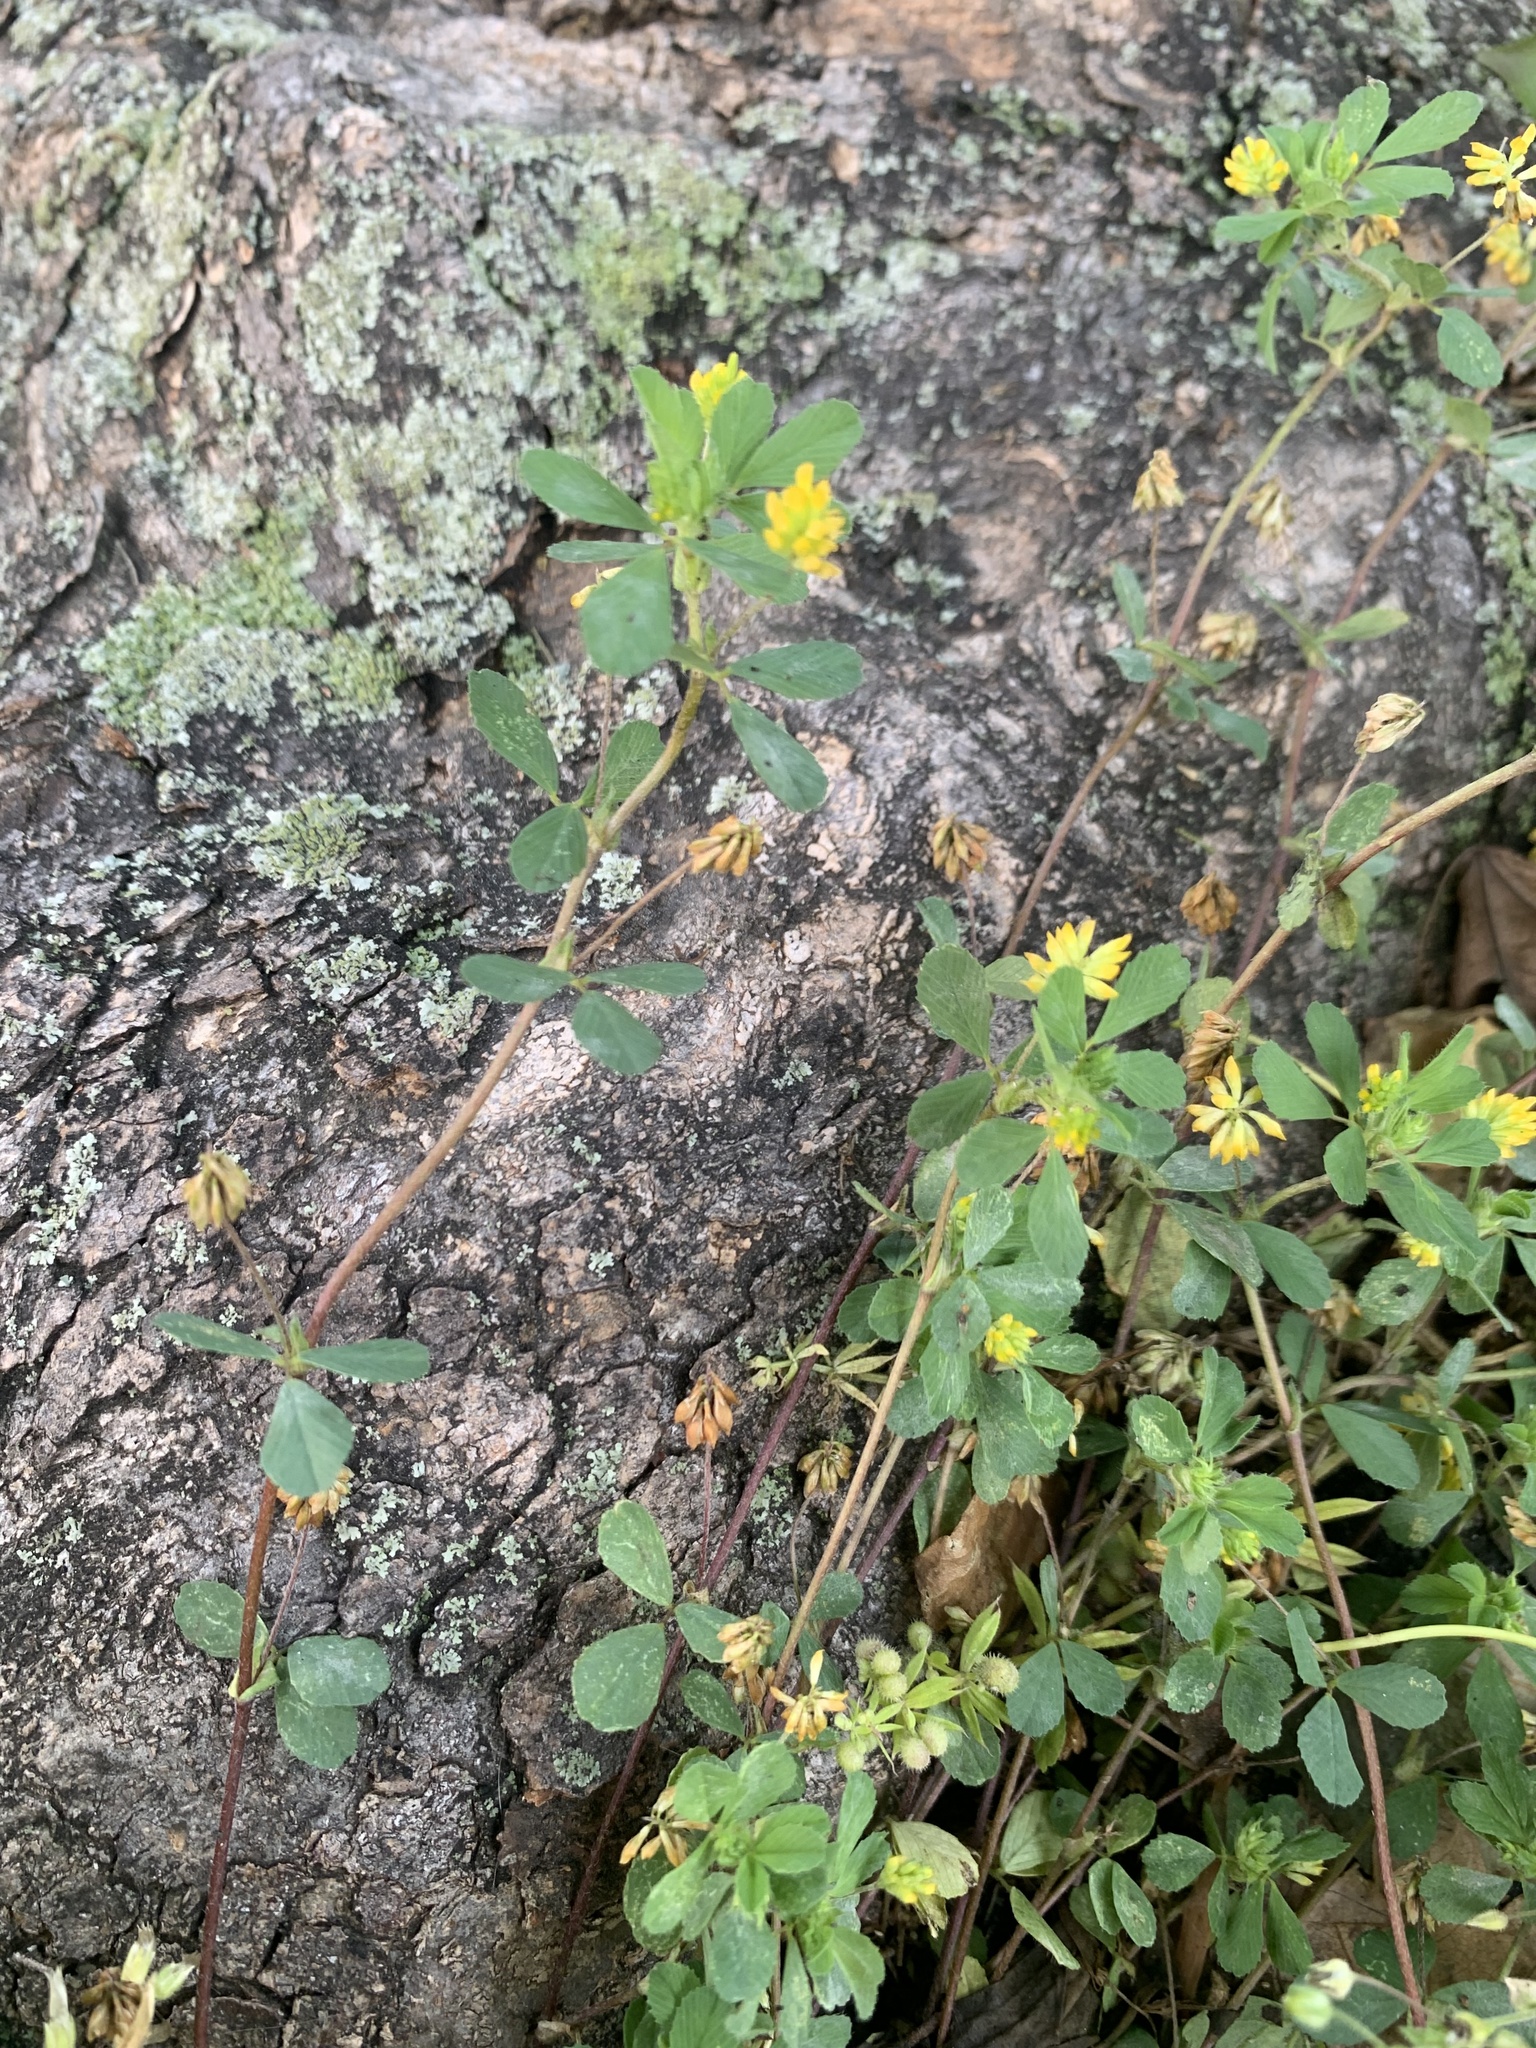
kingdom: Plantae
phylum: Tracheophyta
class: Magnoliopsida
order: Fabales
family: Fabaceae
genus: Trifolium
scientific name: Trifolium dubium
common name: Suckling clover
